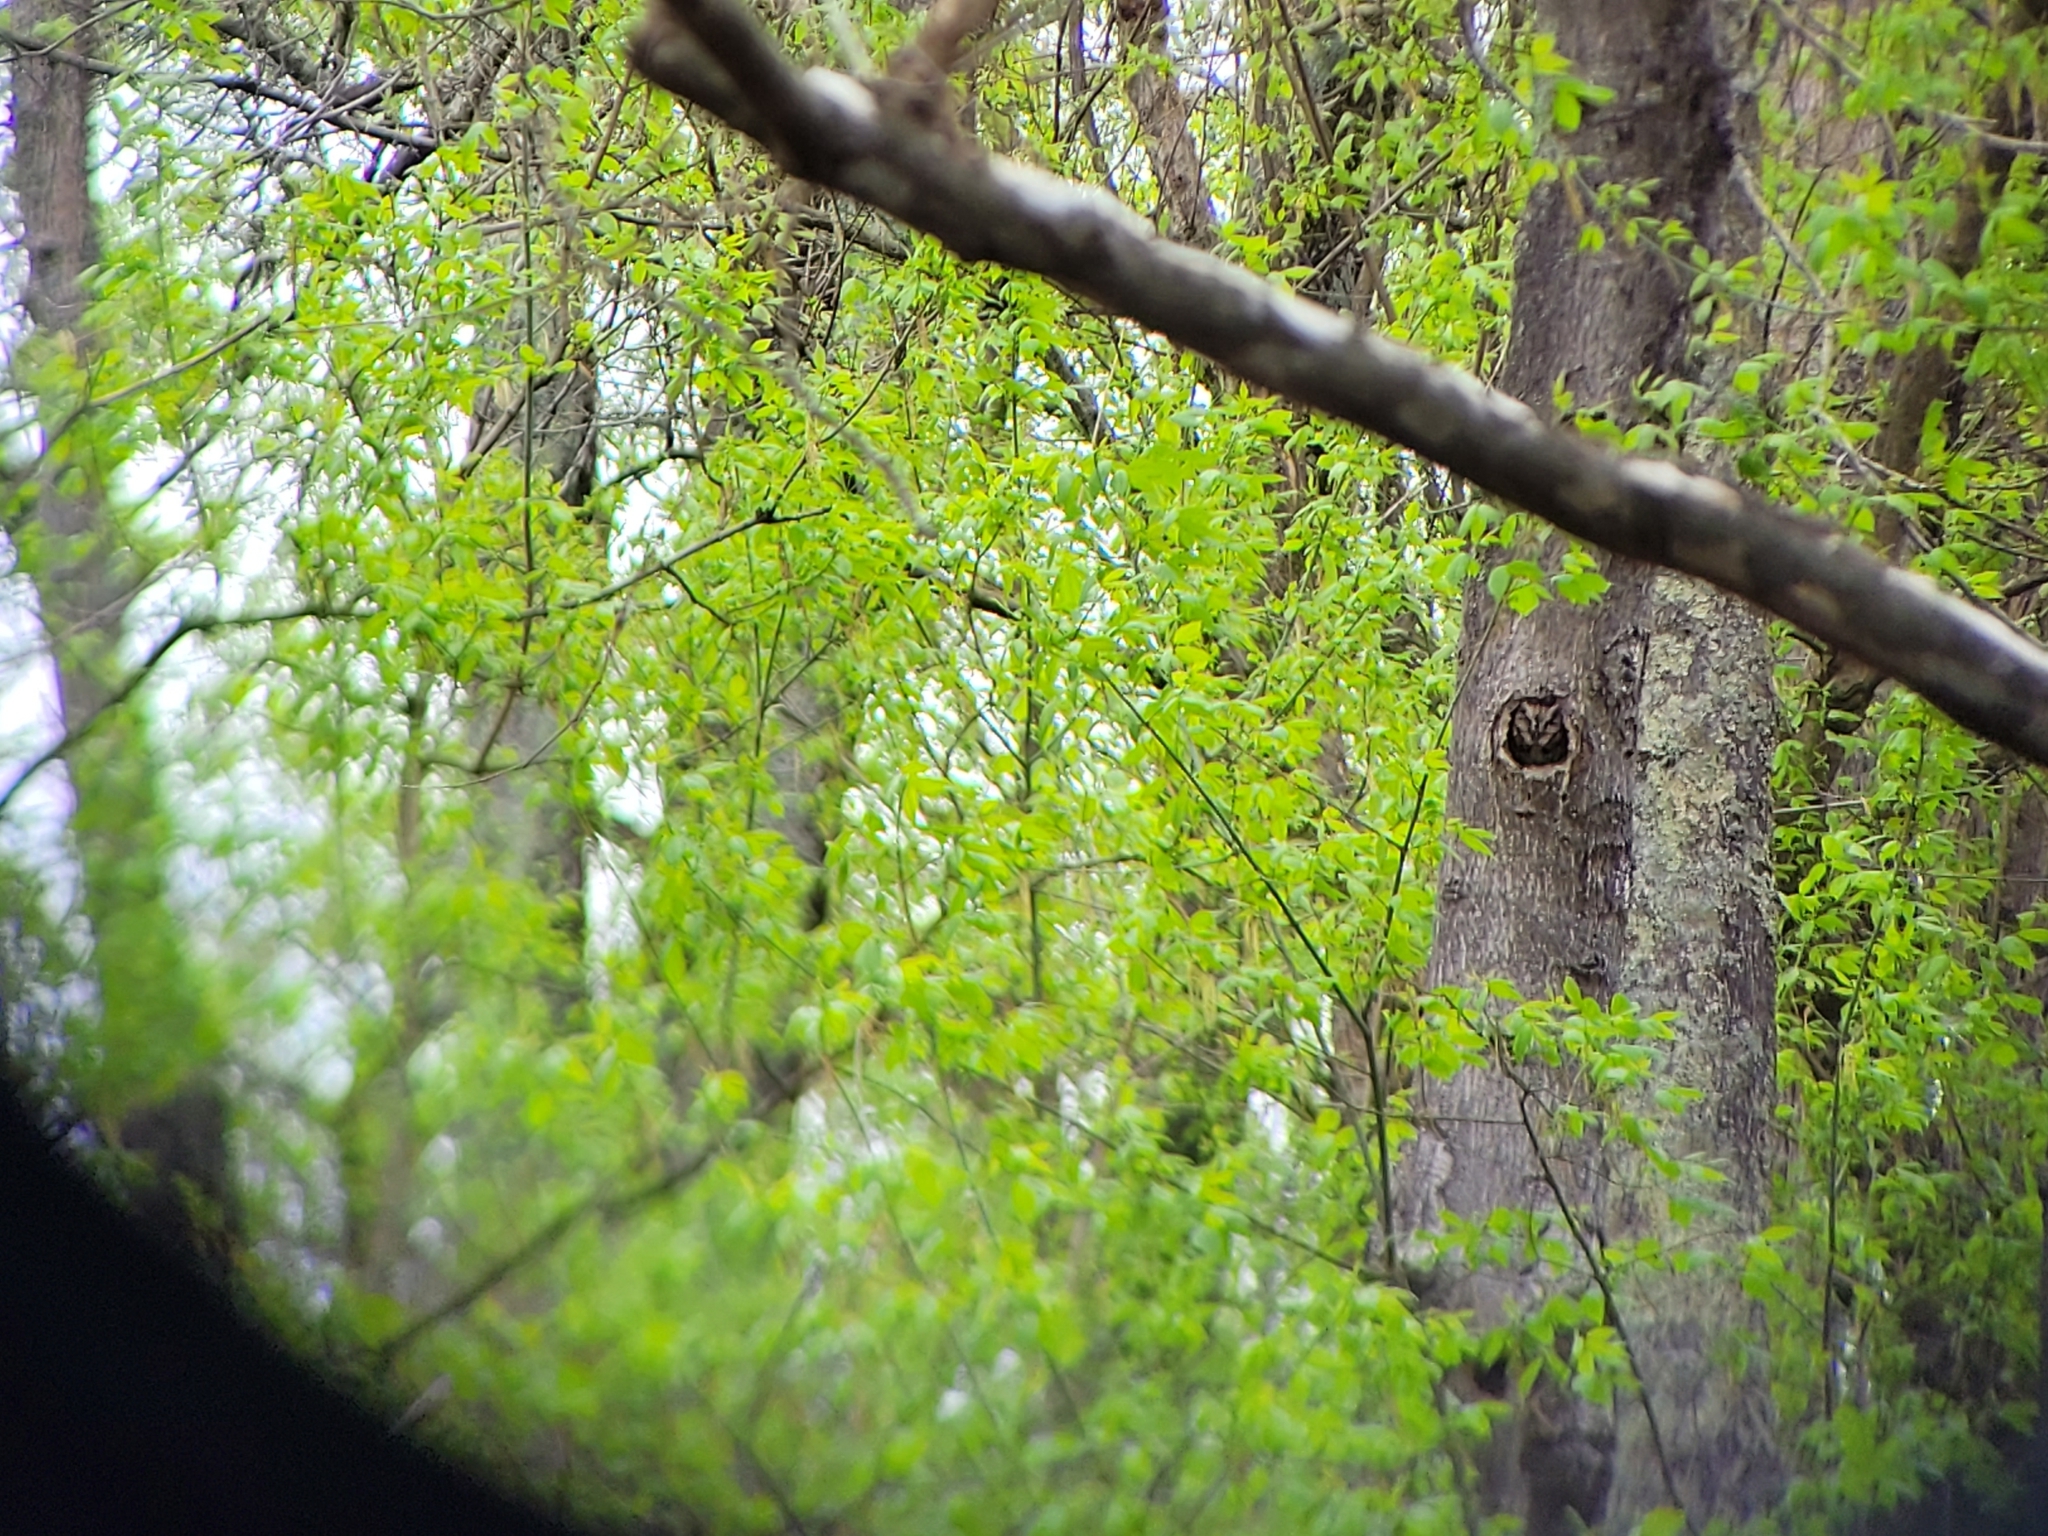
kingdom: Animalia
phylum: Chordata
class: Aves
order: Strigiformes
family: Strigidae
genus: Megascops
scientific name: Megascops asio
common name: Eastern screech-owl
